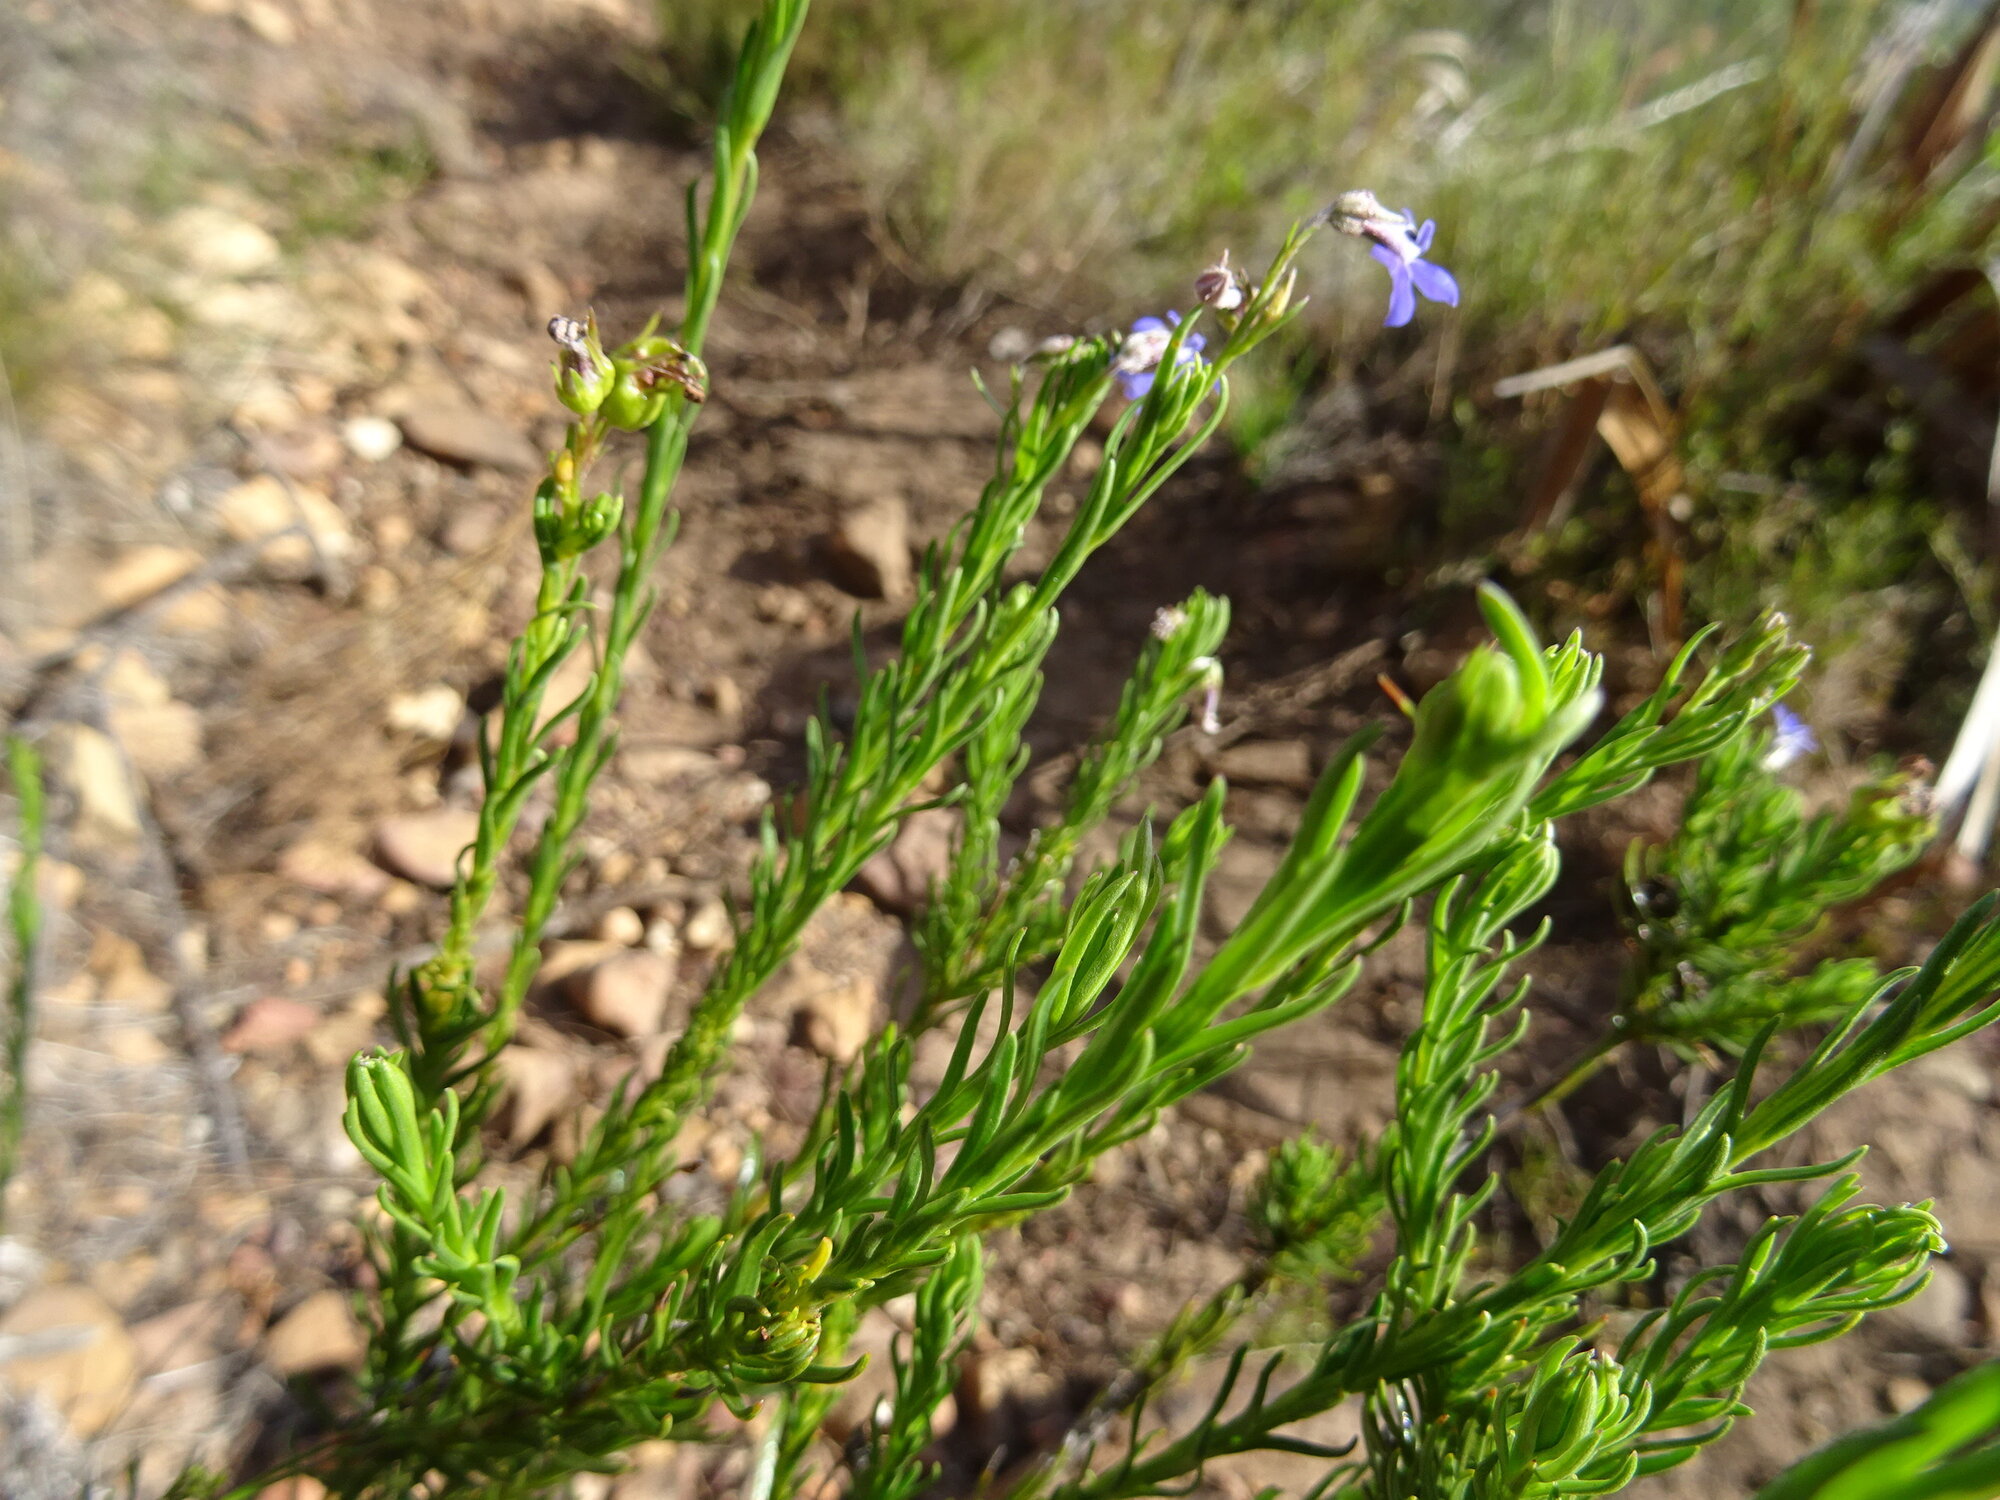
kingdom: Plantae
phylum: Tracheophyta
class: Magnoliopsida
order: Asterales
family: Campanulaceae
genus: Lobelia
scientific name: Lobelia pinifolia
